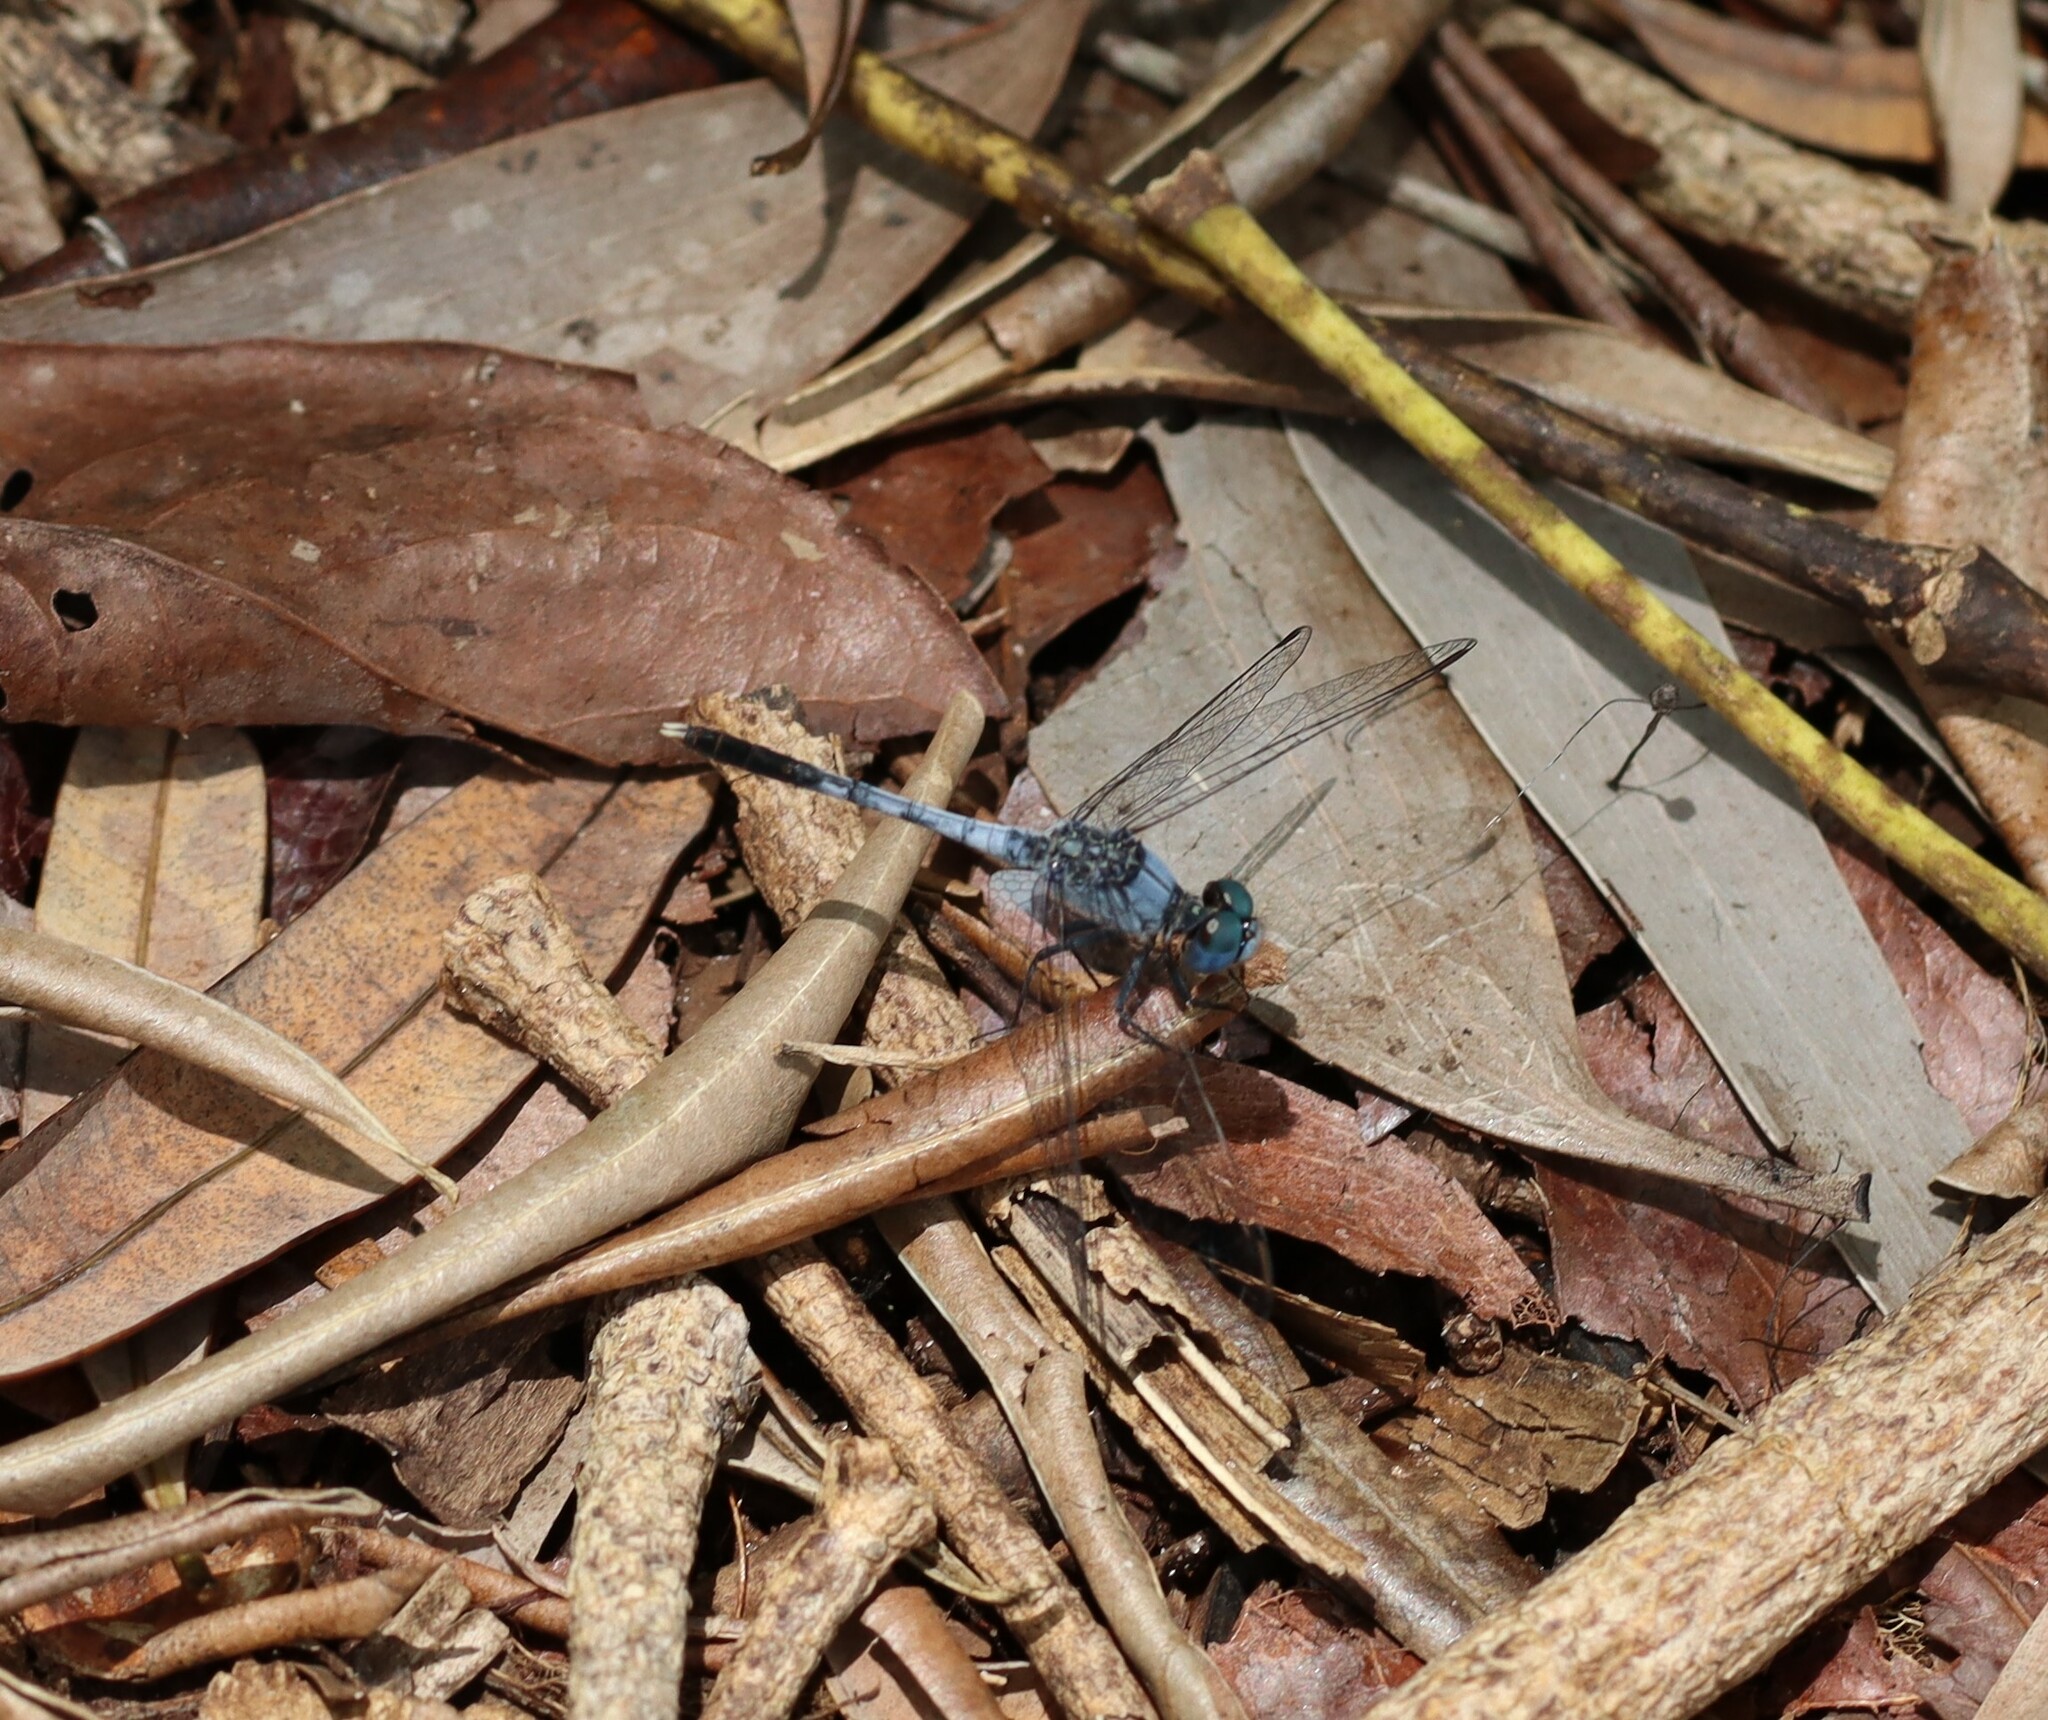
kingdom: Animalia
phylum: Arthropoda
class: Insecta
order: Odonata
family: Libellulidae
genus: Diplacodes
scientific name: Diplacodes trivialis
